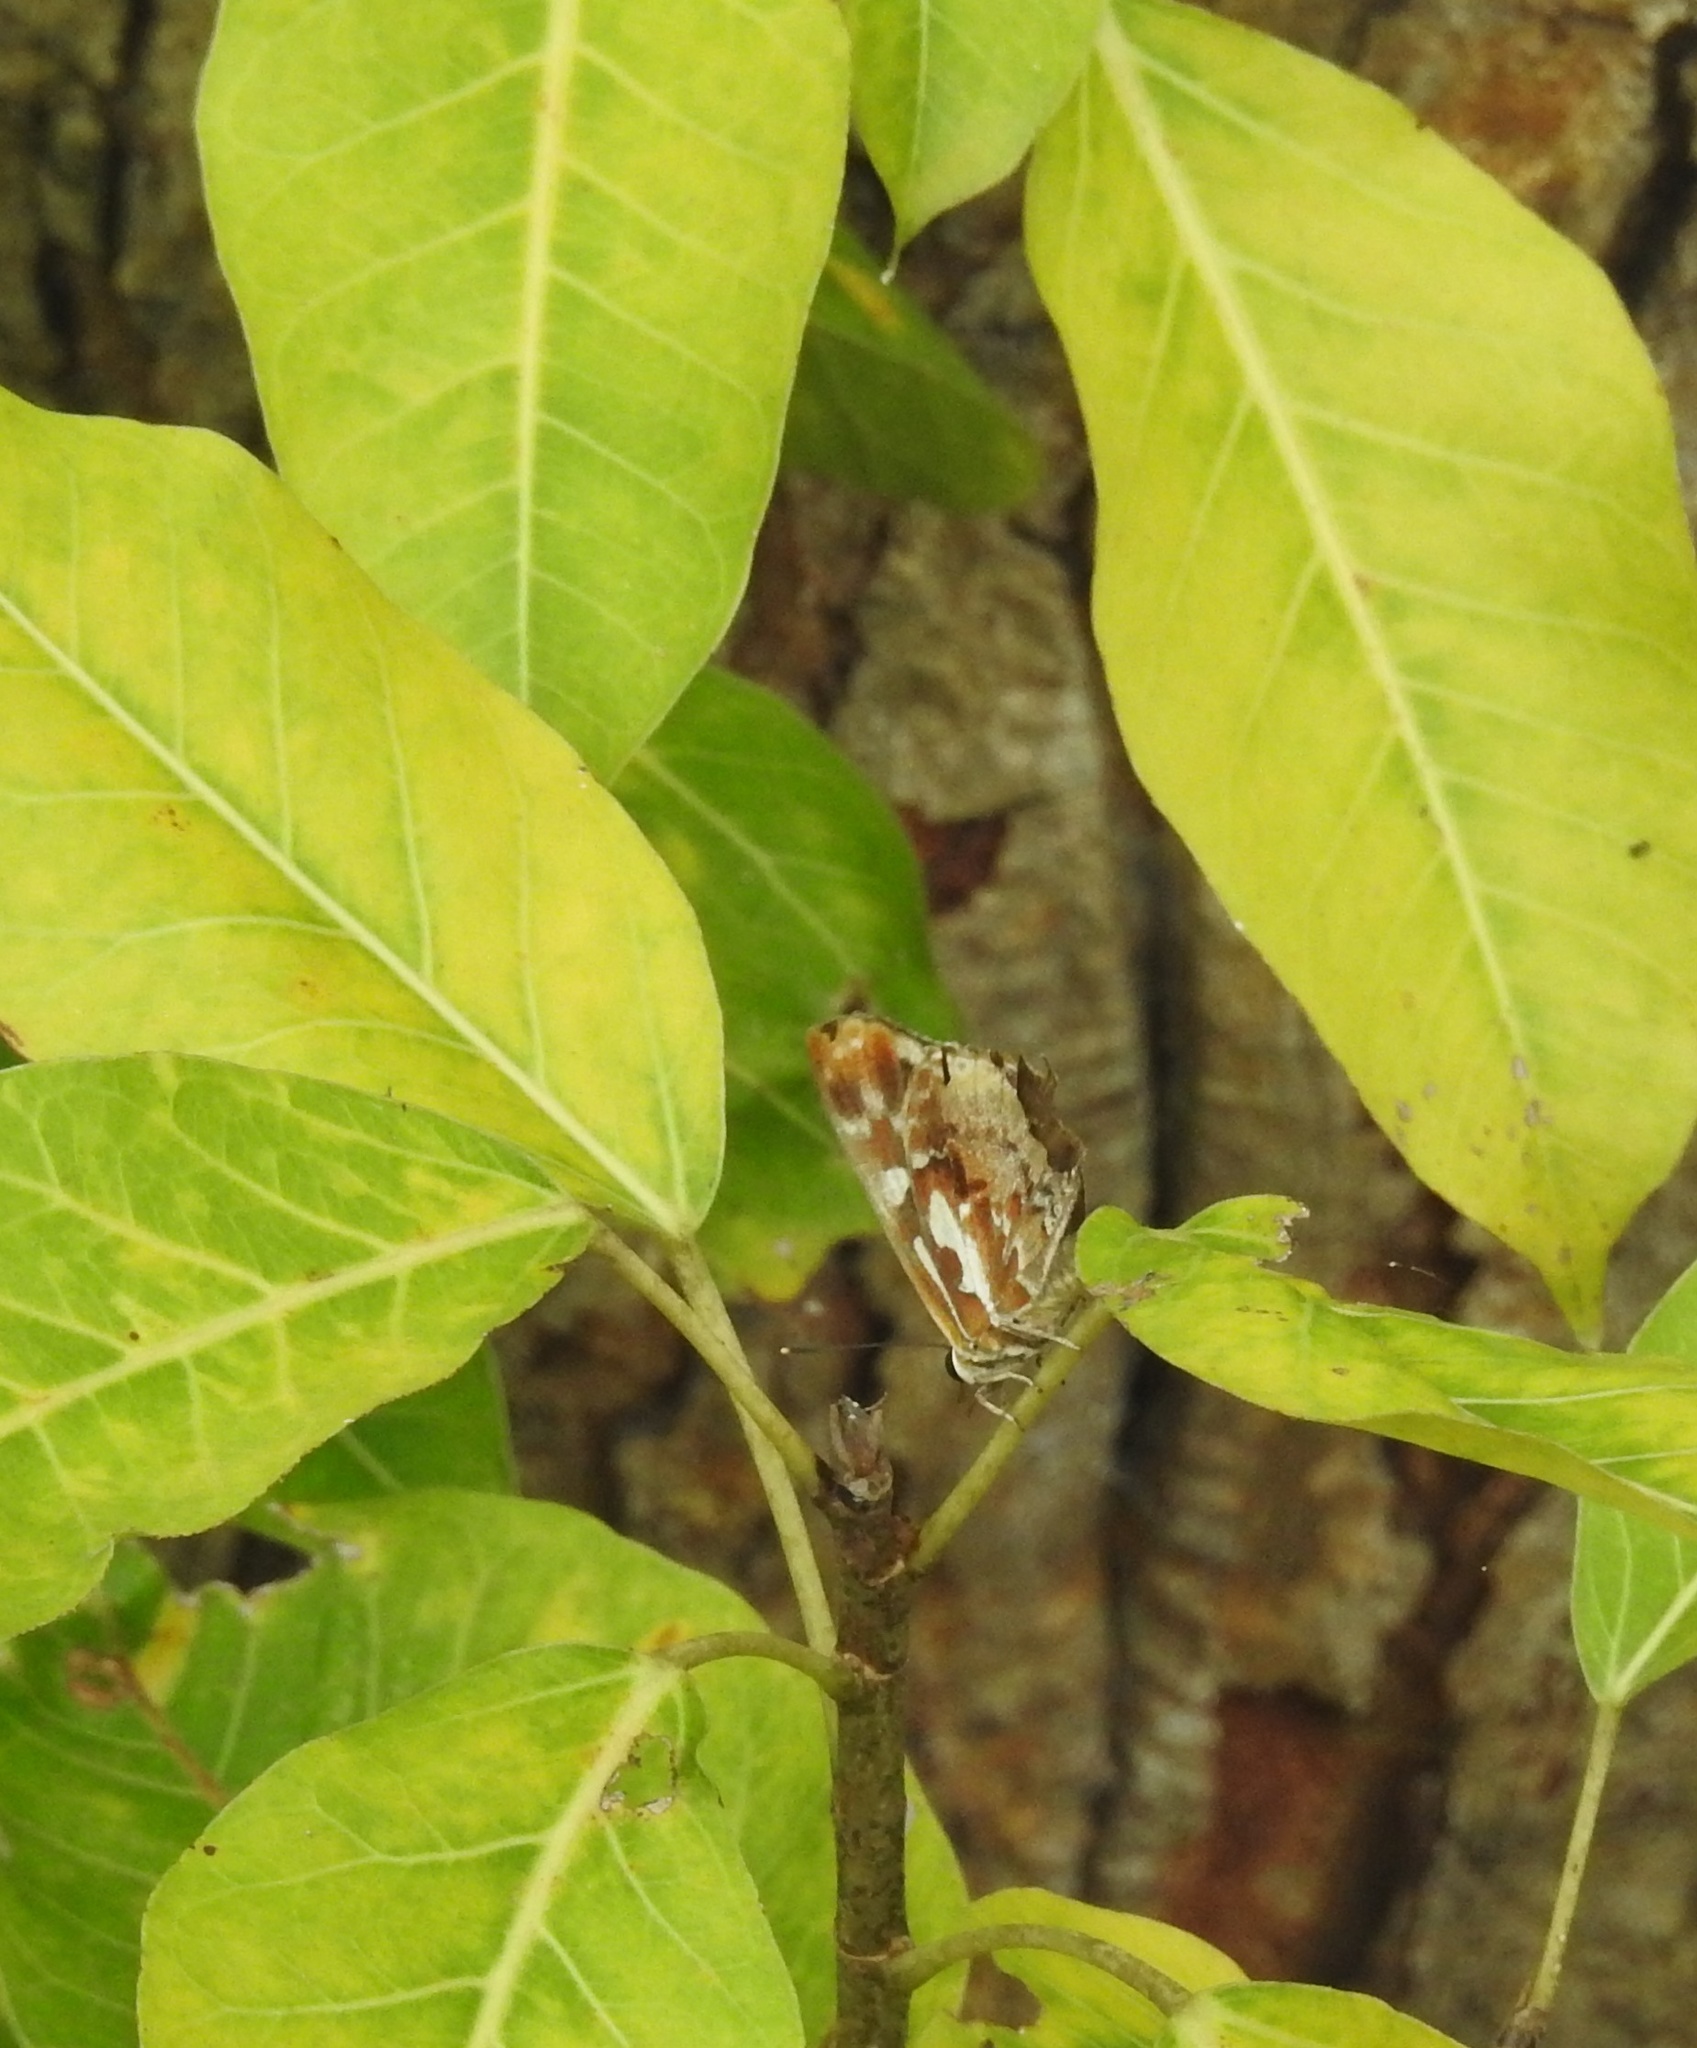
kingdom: Animalia
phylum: Arthropoda
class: Insecta
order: Lepidoptera
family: Lycaenidae
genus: Iraota
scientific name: Iraota timoleon
